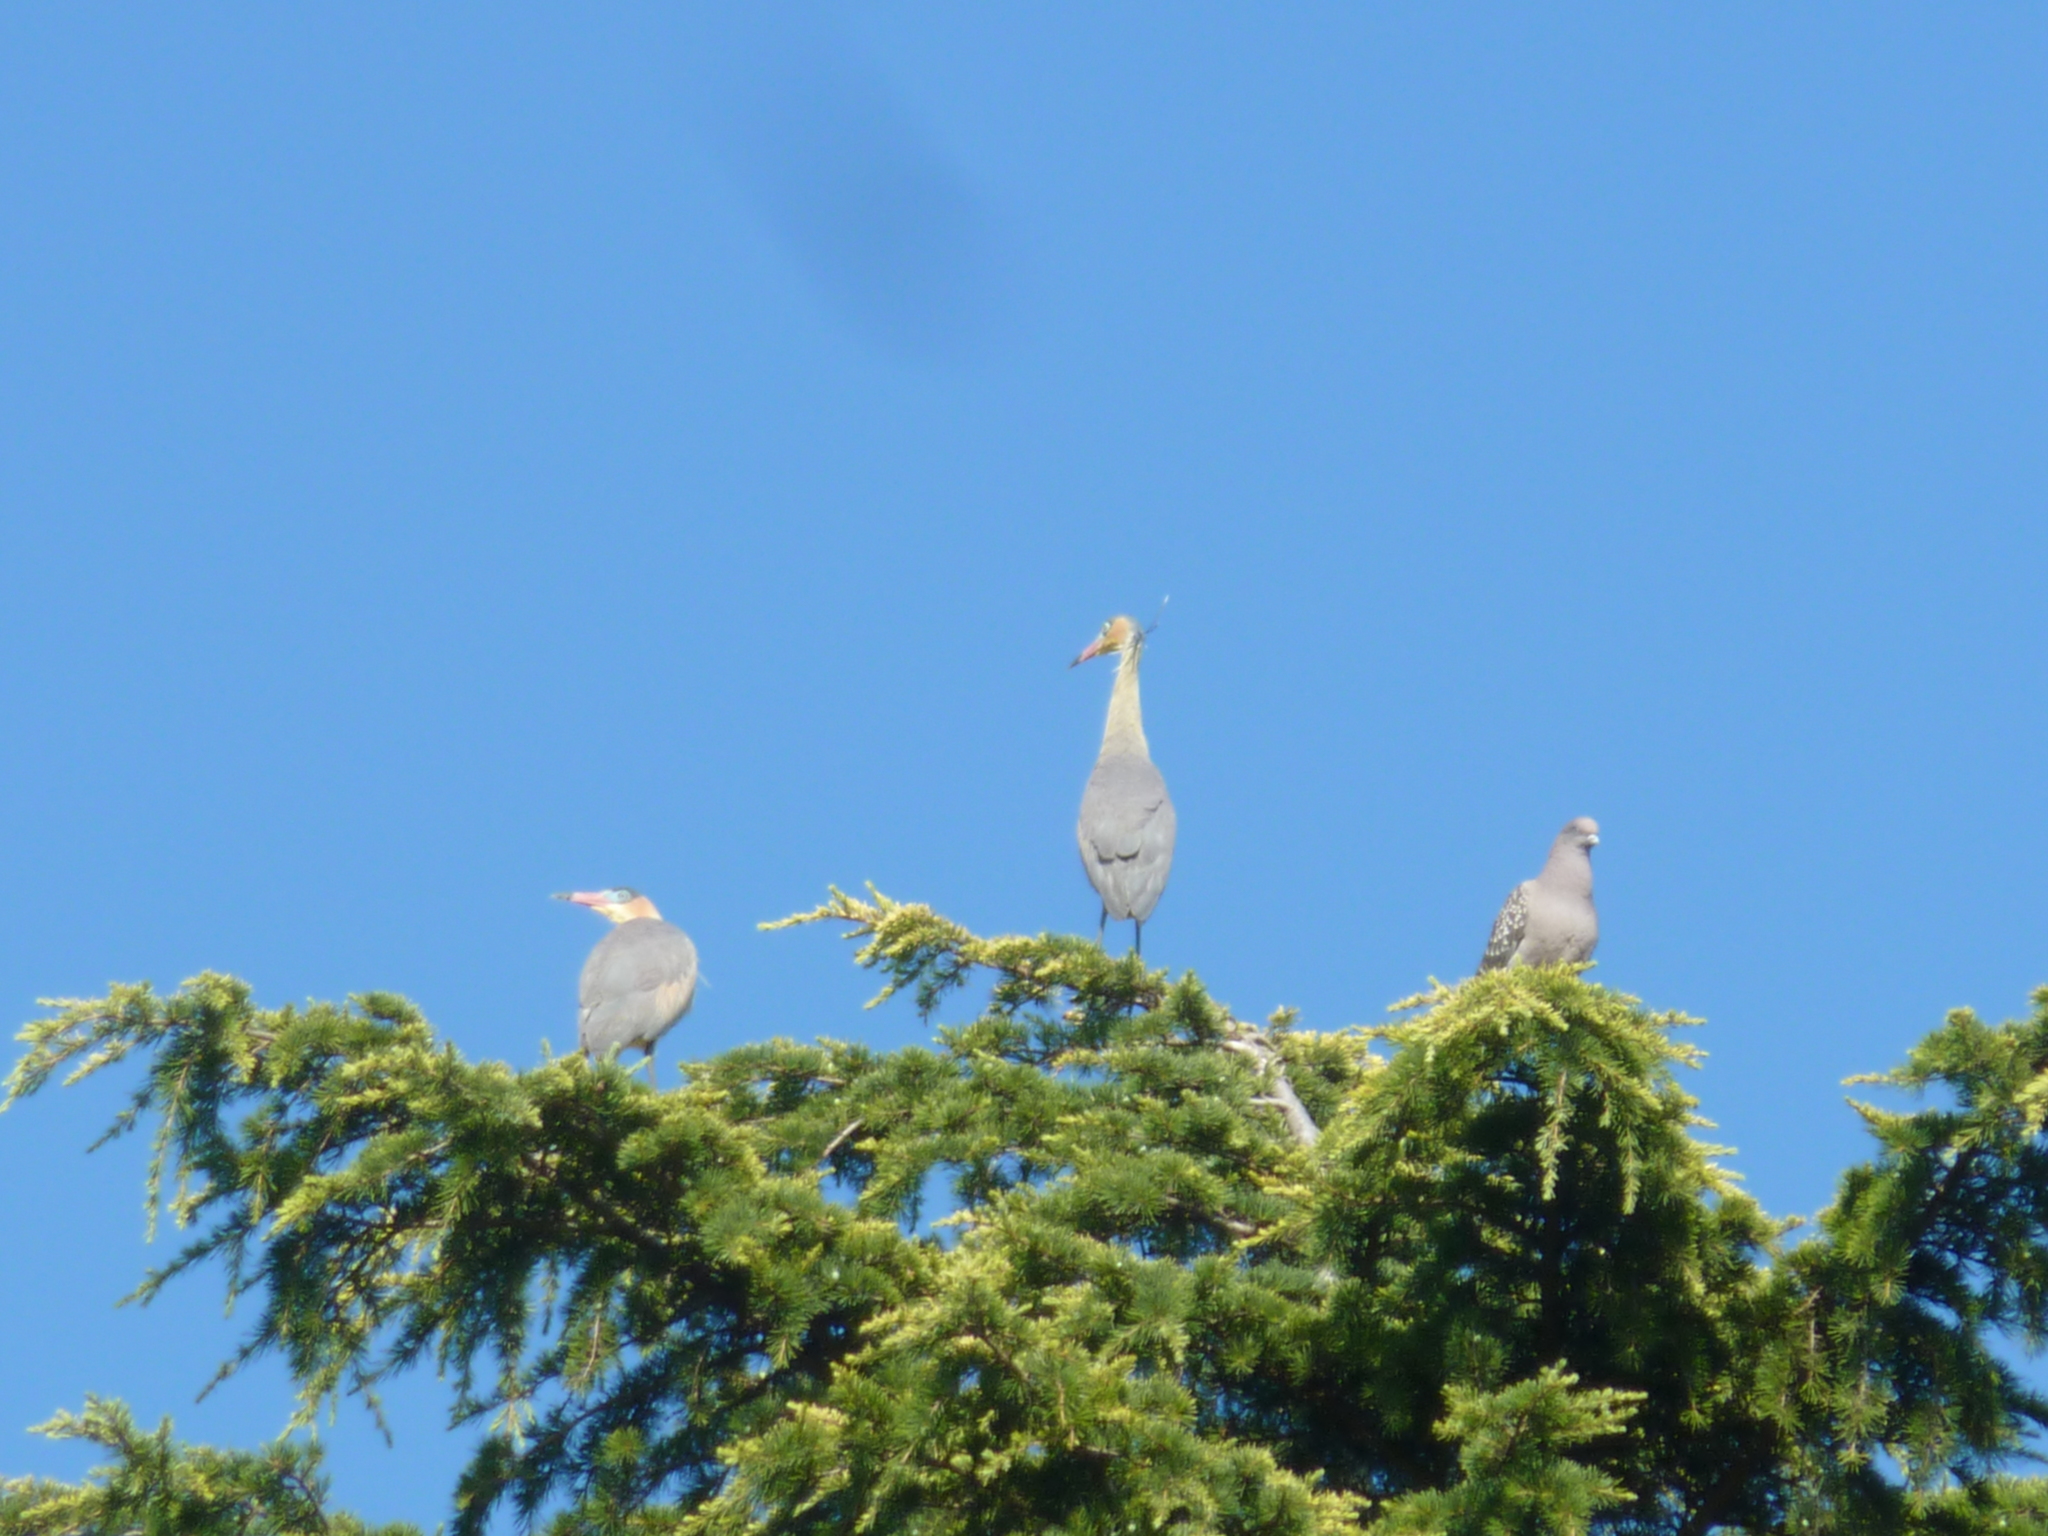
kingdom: Animalia
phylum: Chordata
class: Aves
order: Pelecaniformes
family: Ardeidae
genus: Syrigma
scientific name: Syrigma sibilatrix
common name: Whistling heron
